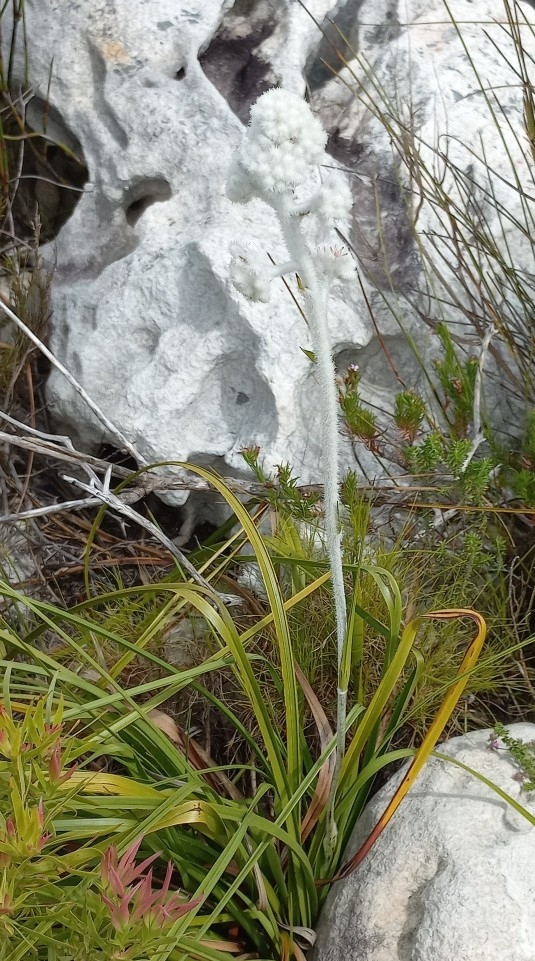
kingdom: Plantae
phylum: Tracheophyta
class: Liliopsida
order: Asparagales
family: Lanariaceae
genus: Lanaria
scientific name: Lanaria lanata
